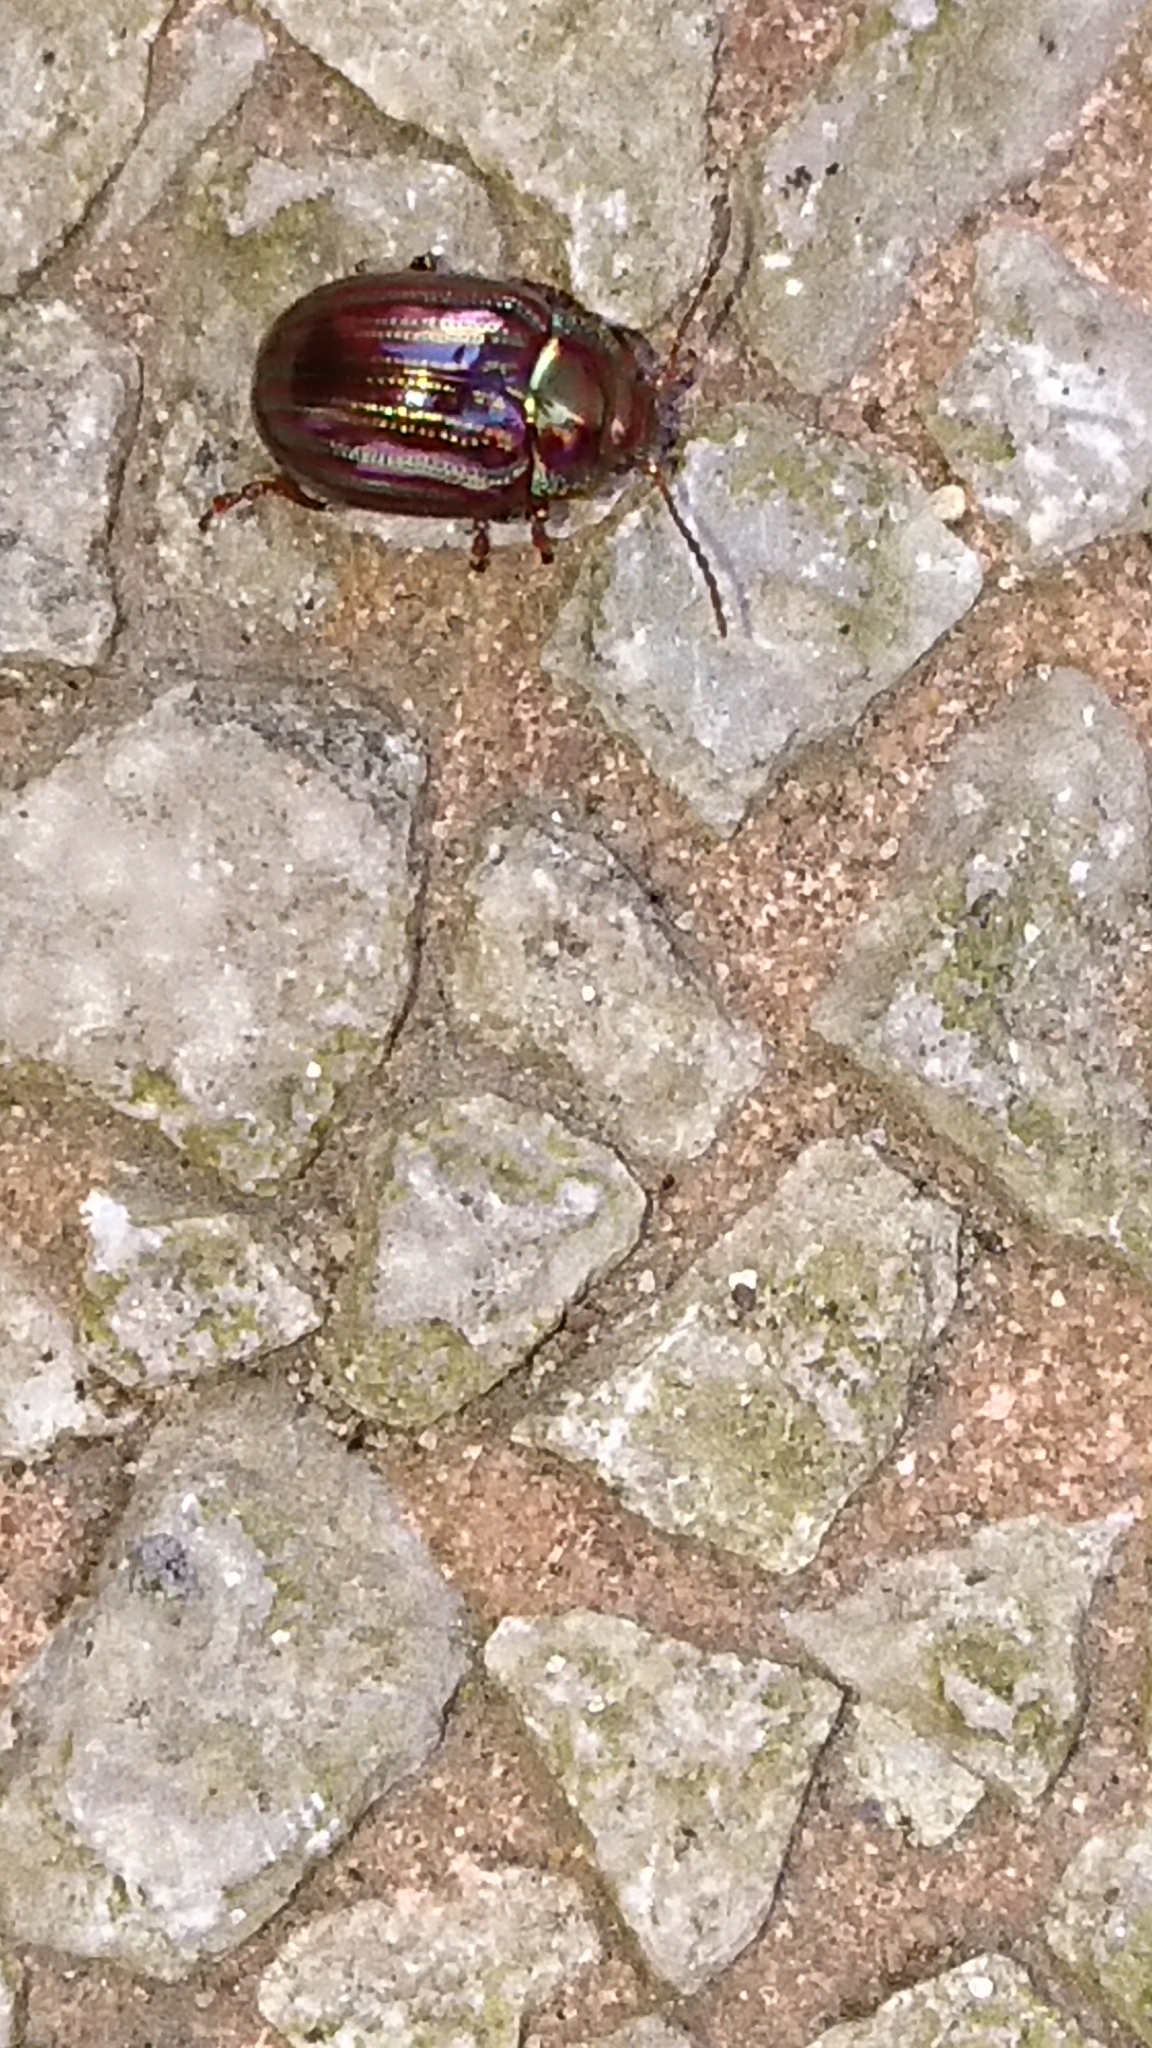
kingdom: Animalia
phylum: Arthropoda
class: Insecta
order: Coleoptera
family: Chrysomelidae
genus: Chrysolina
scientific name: Chrysolina americana
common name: Rosemary beetle
